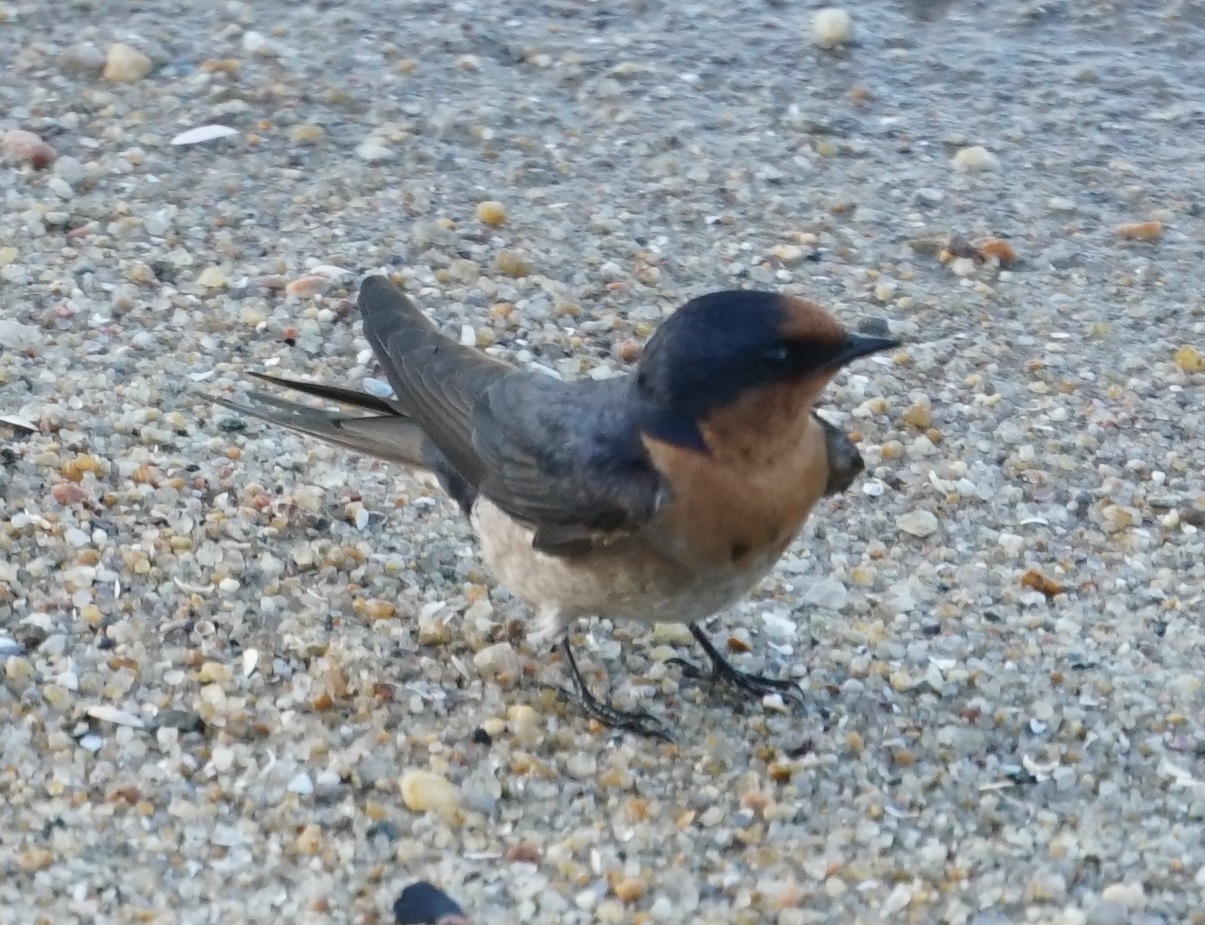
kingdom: Animalia
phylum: Chordata
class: Aves
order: Passeriformes
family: Hirundinidae
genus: Hirundo
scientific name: Hirundo neoxena
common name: Welcome swallow
